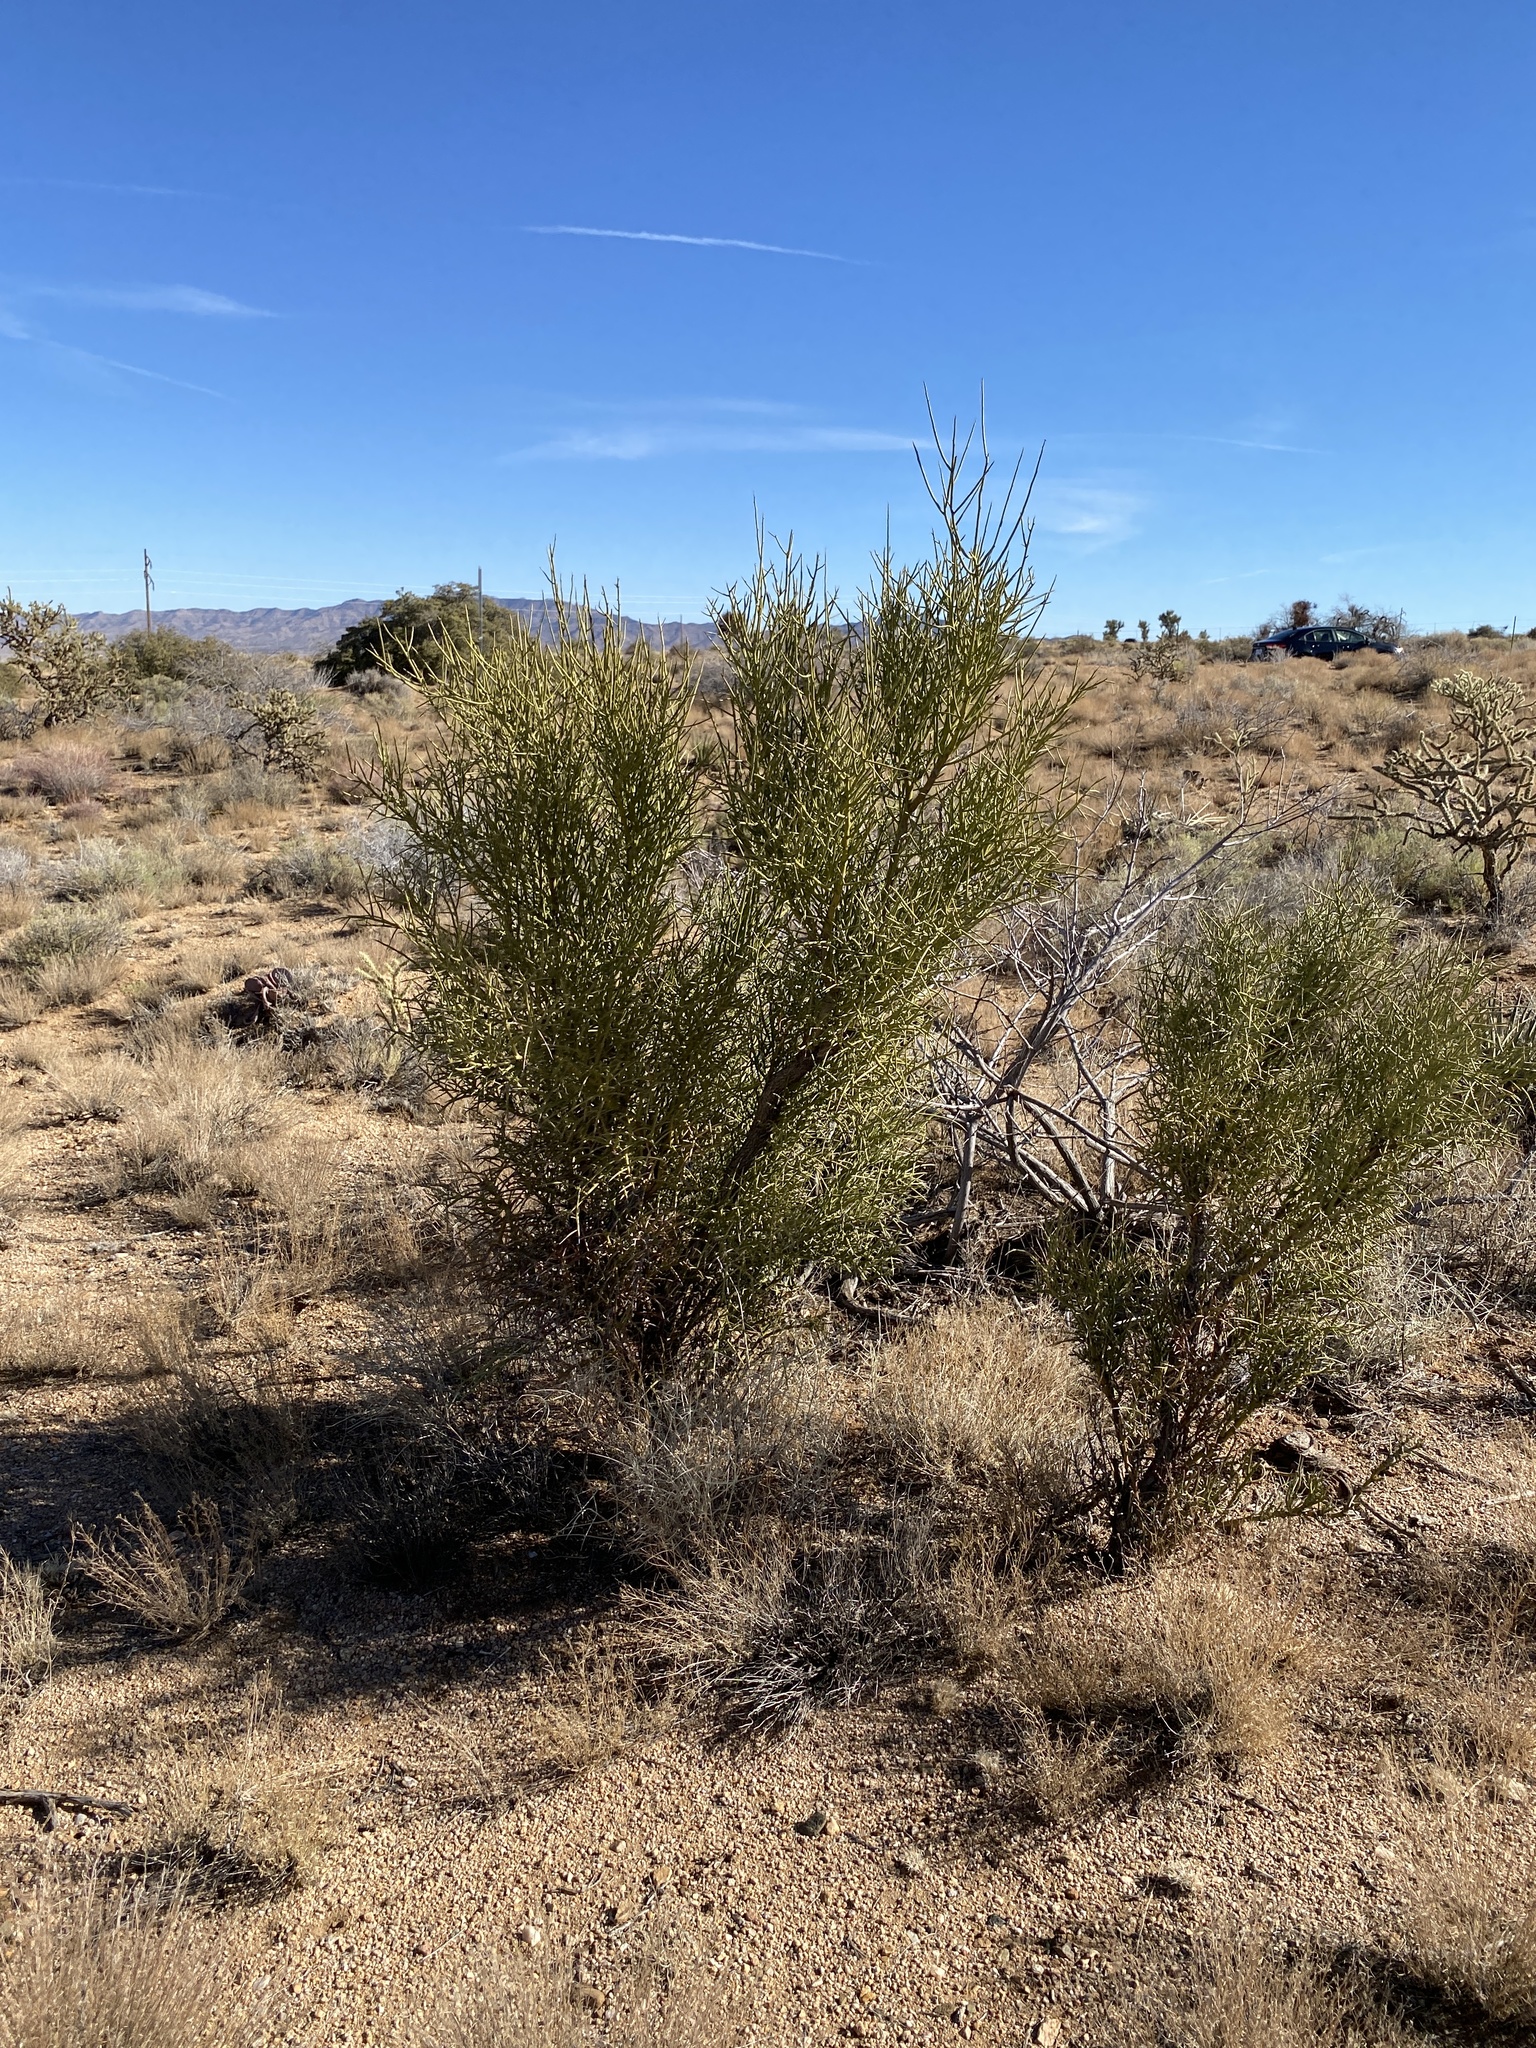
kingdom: Plantae
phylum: Tracheophyta
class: Magnoliopsida
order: Celastrales
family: Celastraceae
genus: Canotia
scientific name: Canotia holacantha
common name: Crucifixion thorns
